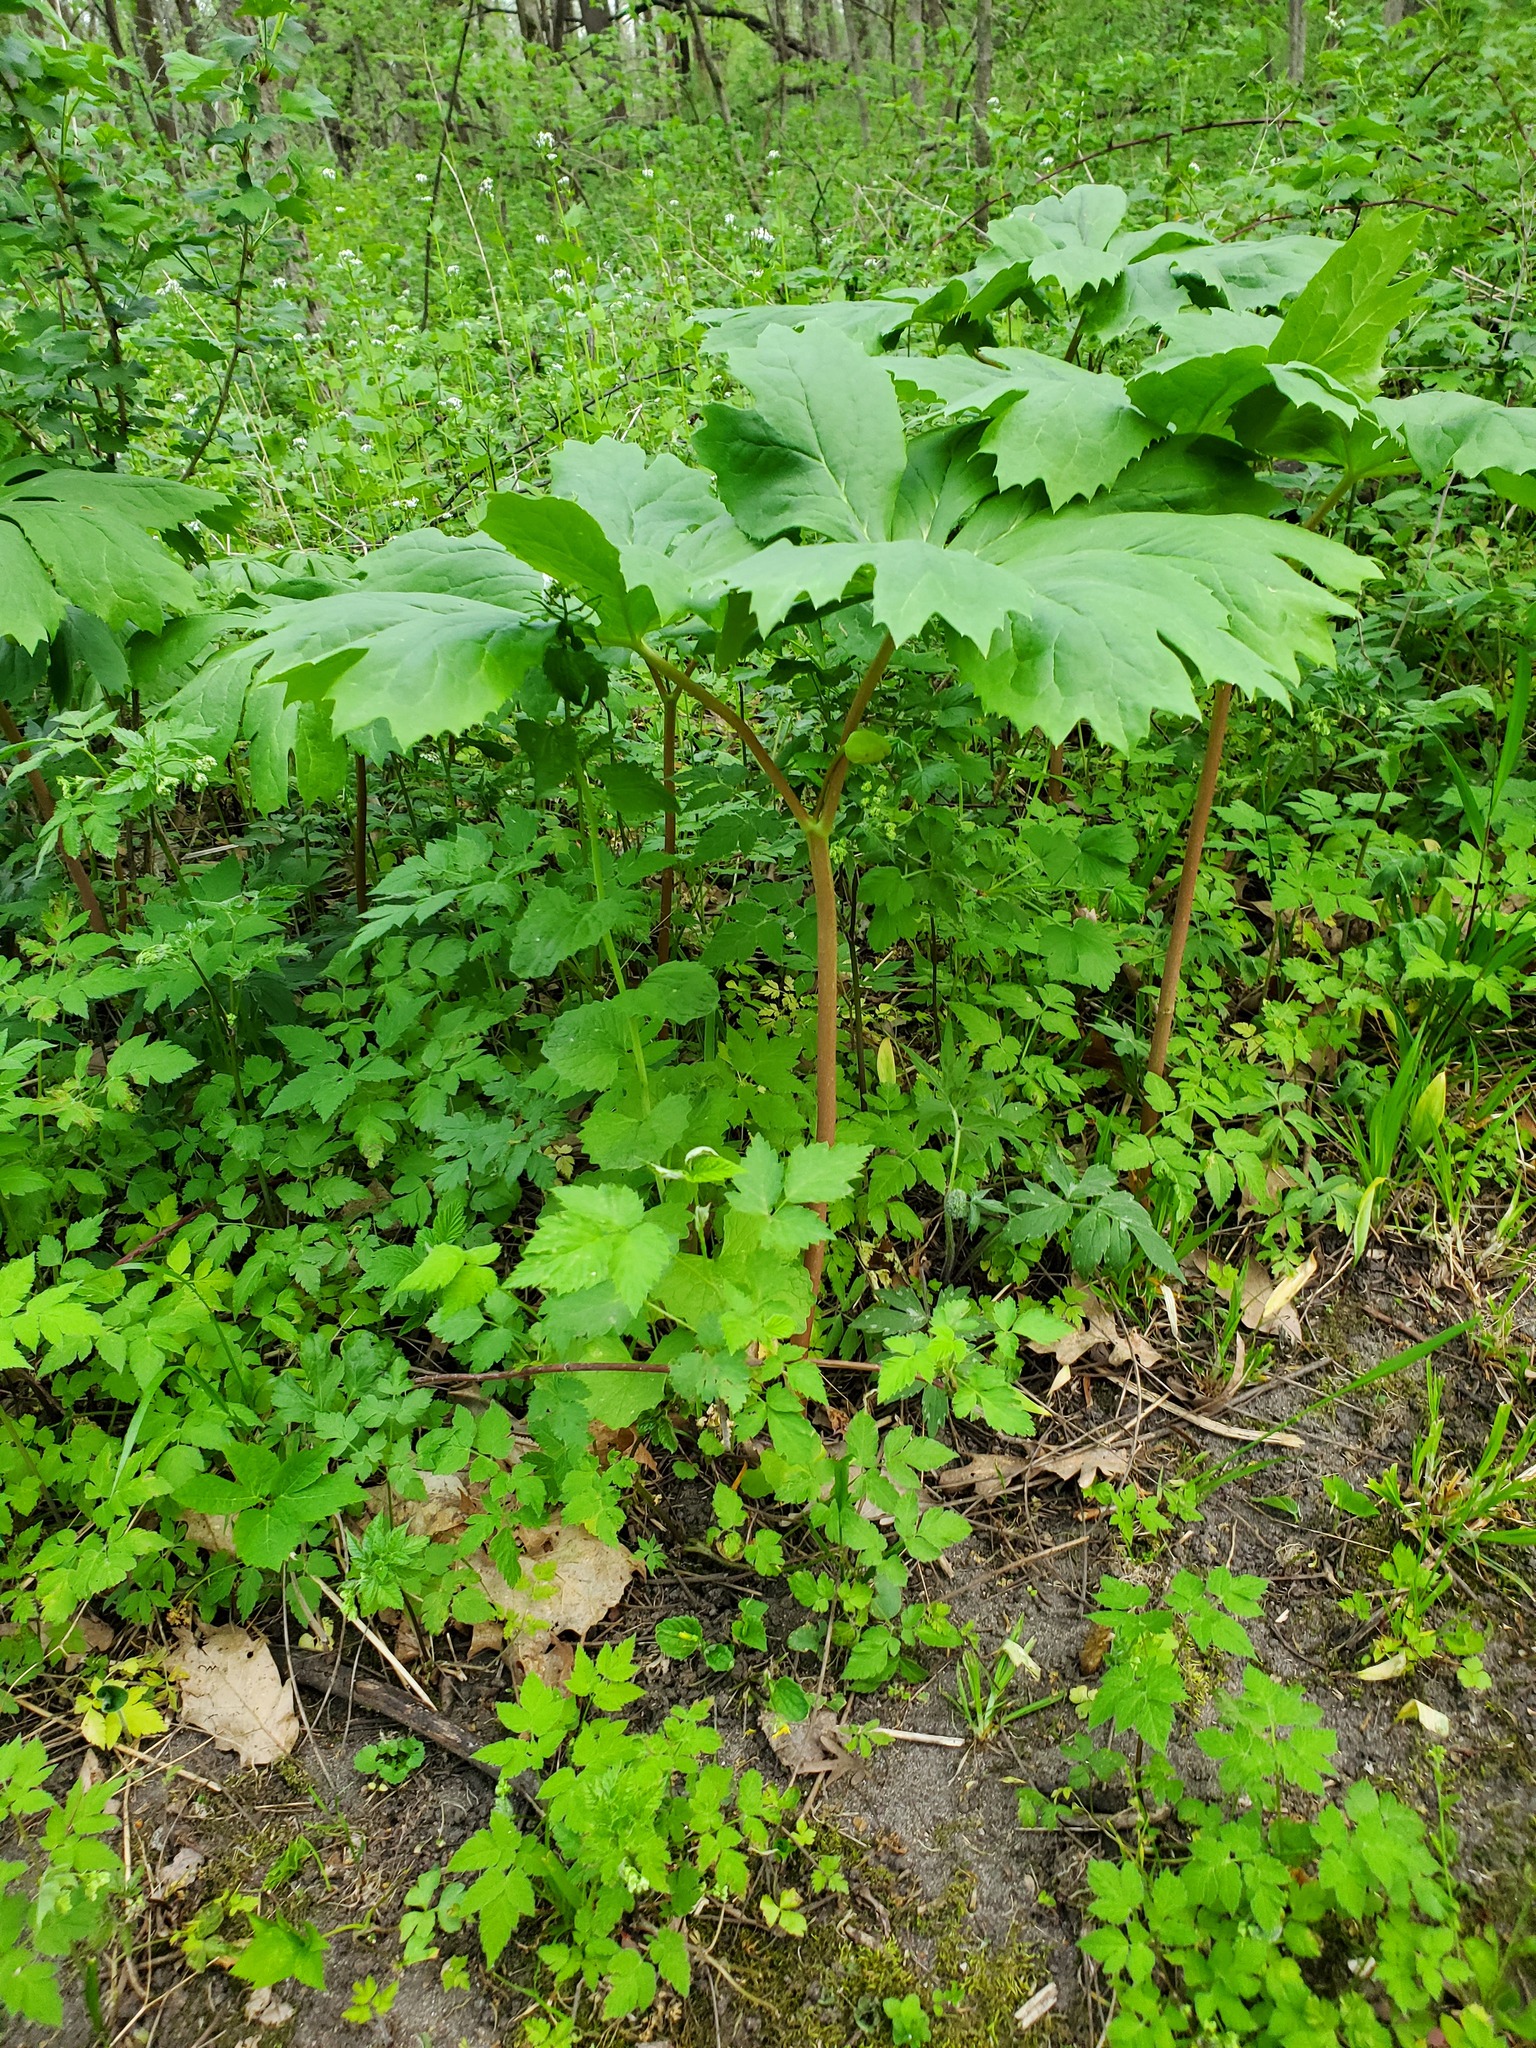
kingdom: Plantae
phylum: Tracheophyta
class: Magnoliopsida
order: Ranunculales
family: Berberidaceae
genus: Podophyllum
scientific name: Podophyllum peltatum
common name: Wild mandrake
